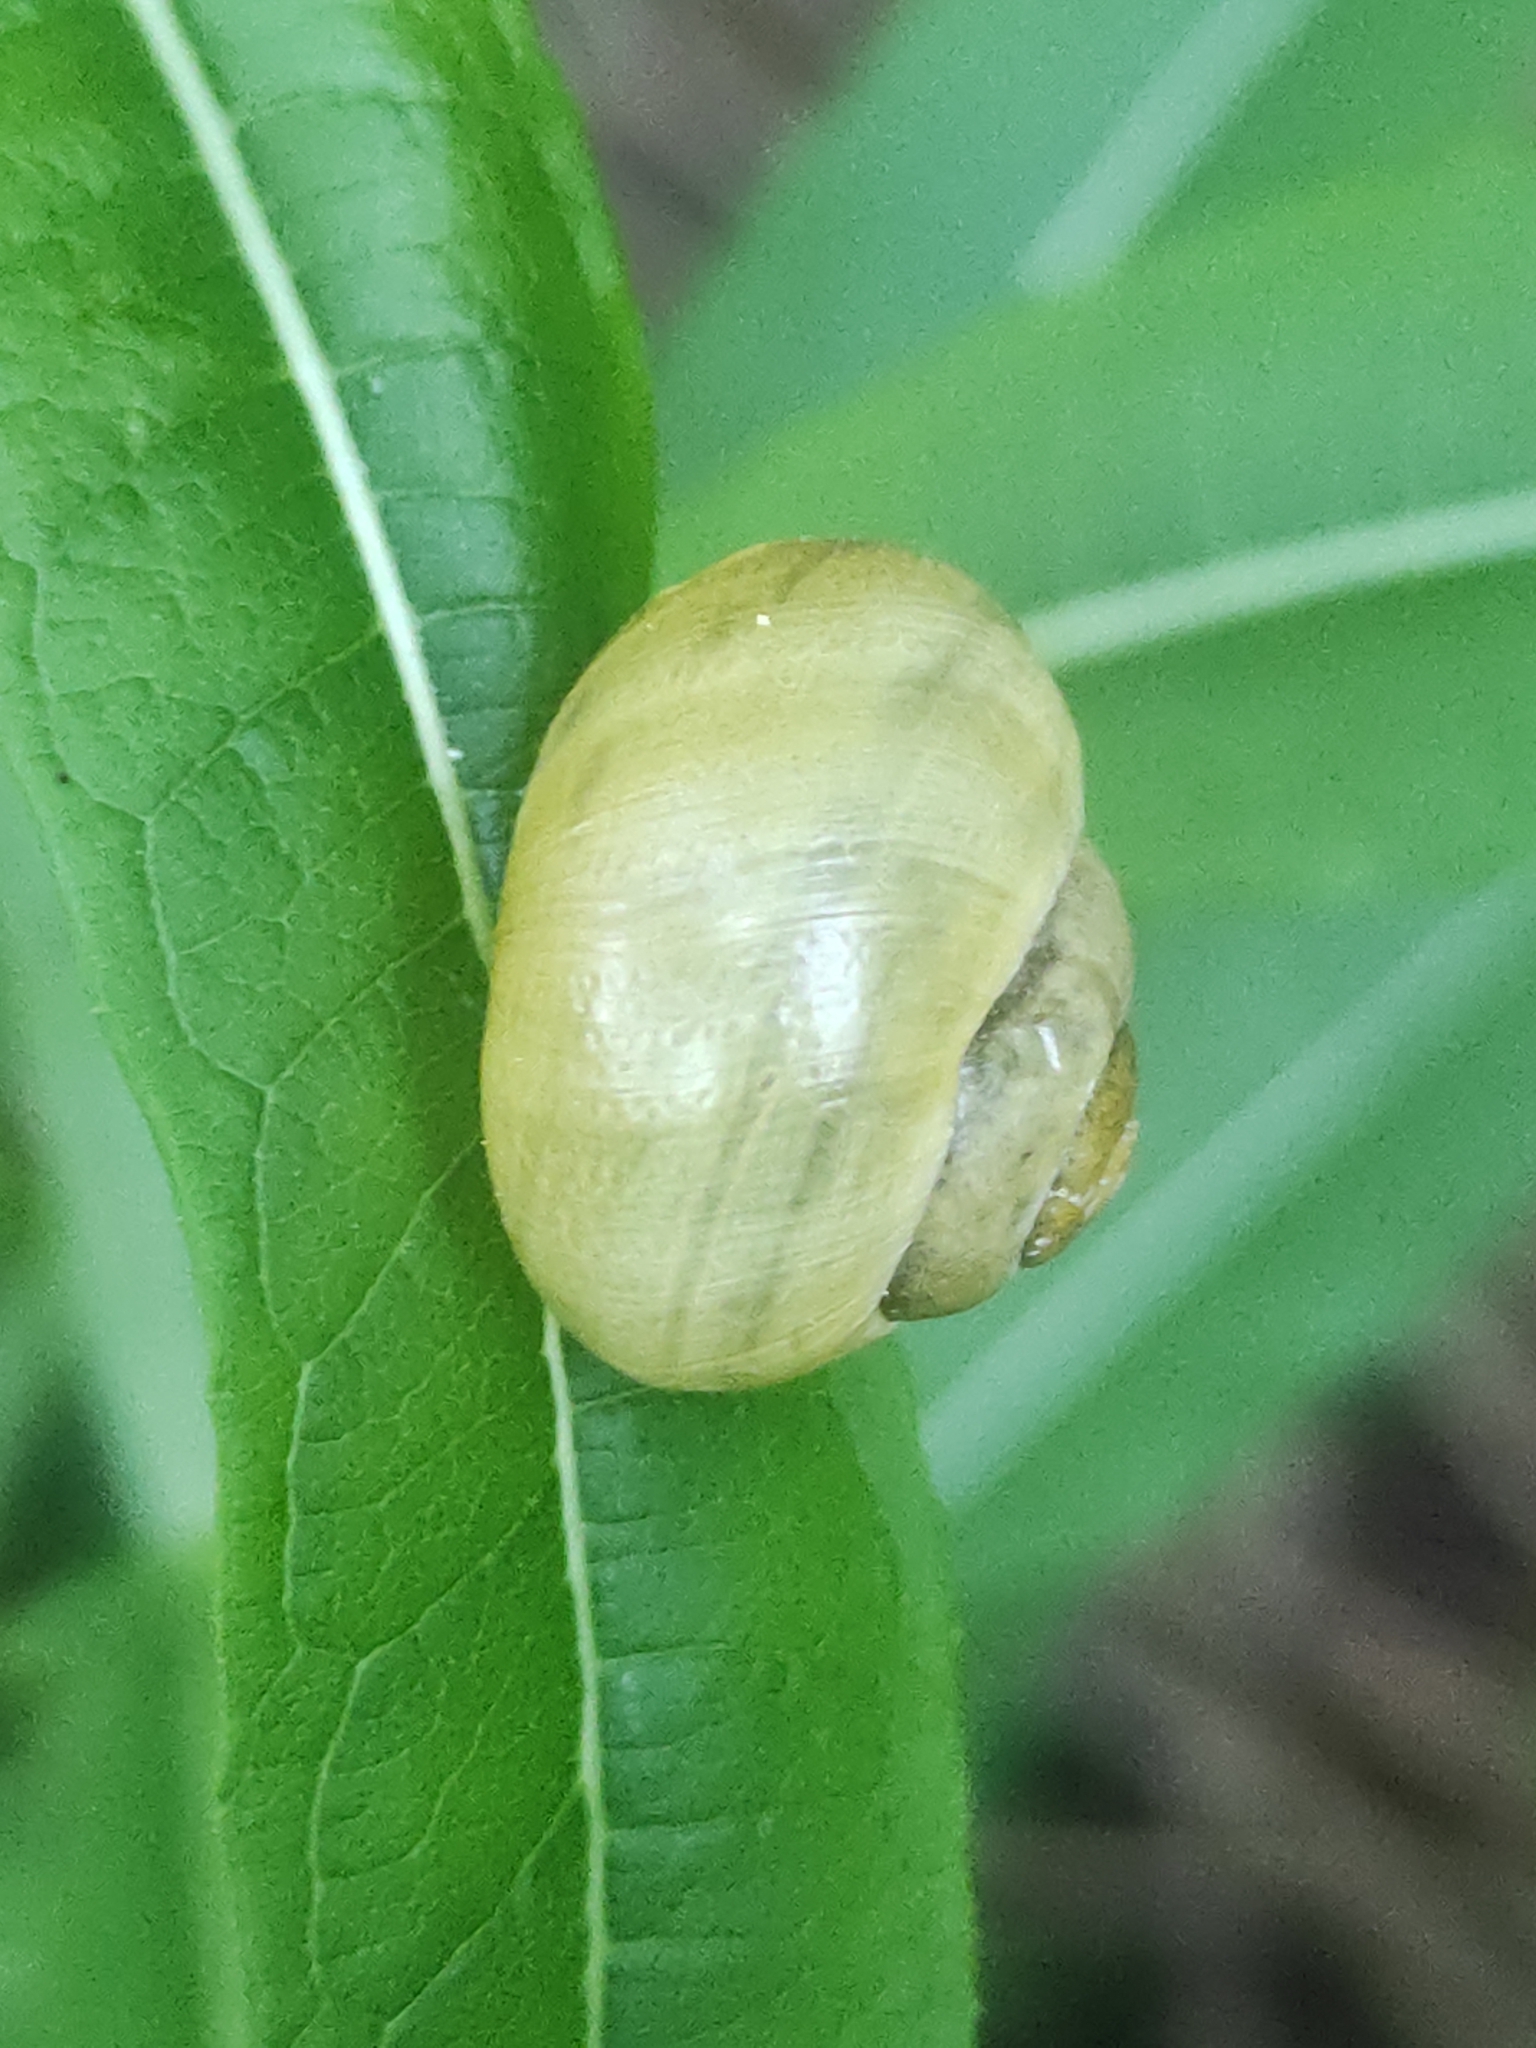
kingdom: Animalia
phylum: Mollusca
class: Gastropoda
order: Stylommatophora
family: Helicidae
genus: Cepaea
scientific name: Cepaea
